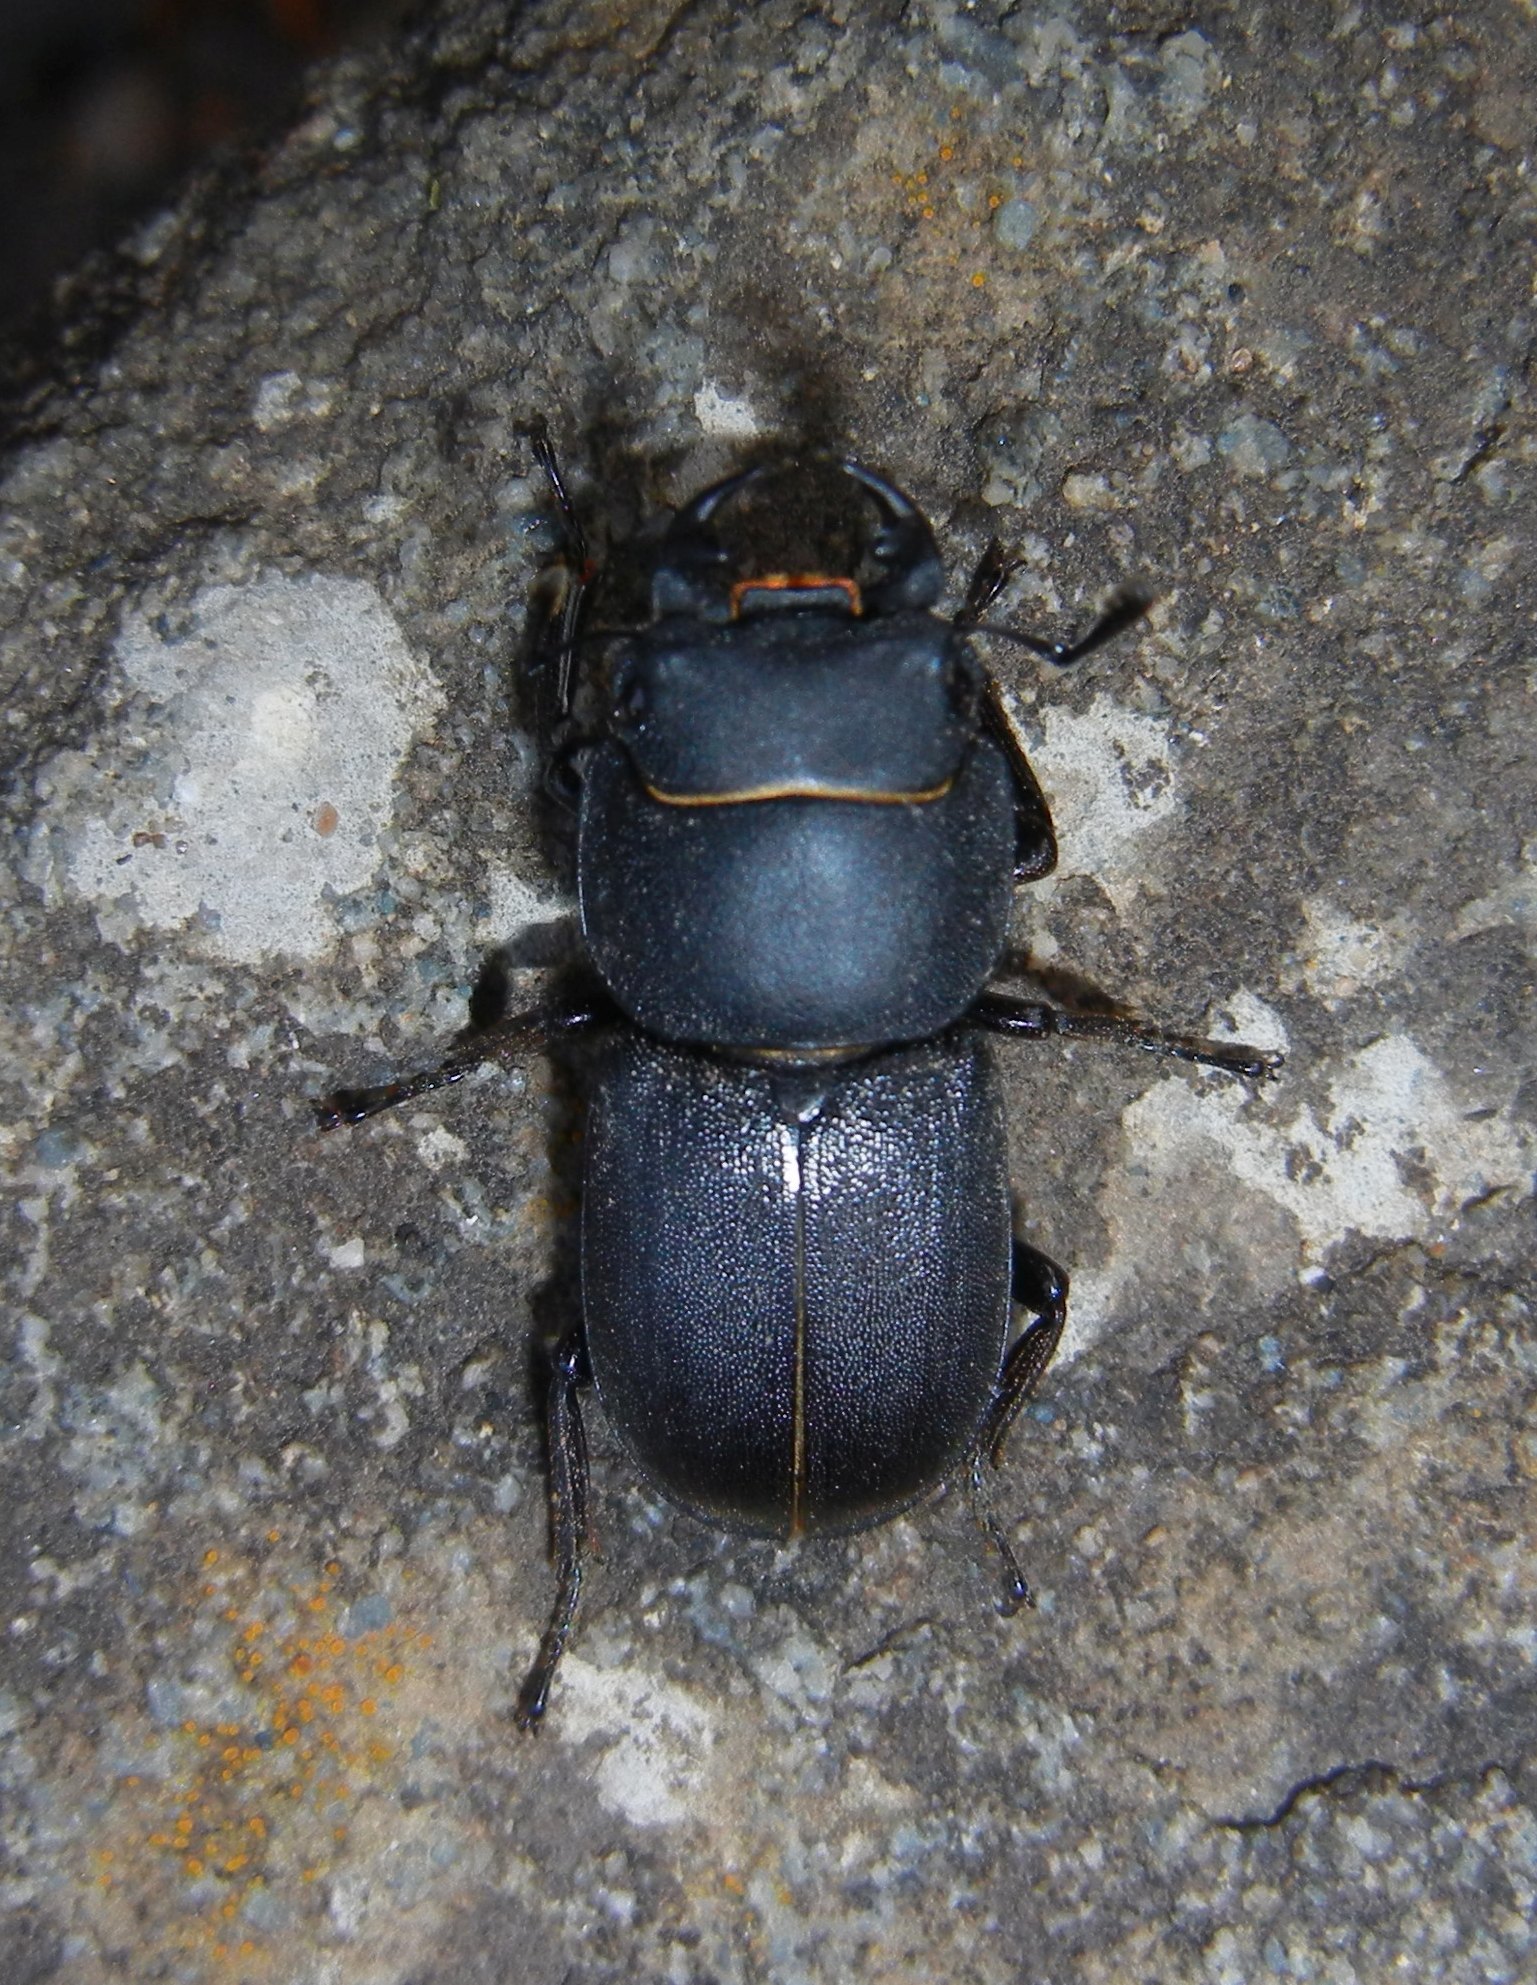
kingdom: Animalia
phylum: Arthropoda
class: Insecta
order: Coleoptera
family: Lucanidae
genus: Dorcus
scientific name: Dorcus parallelipipedus
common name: Lesser stag beetle
